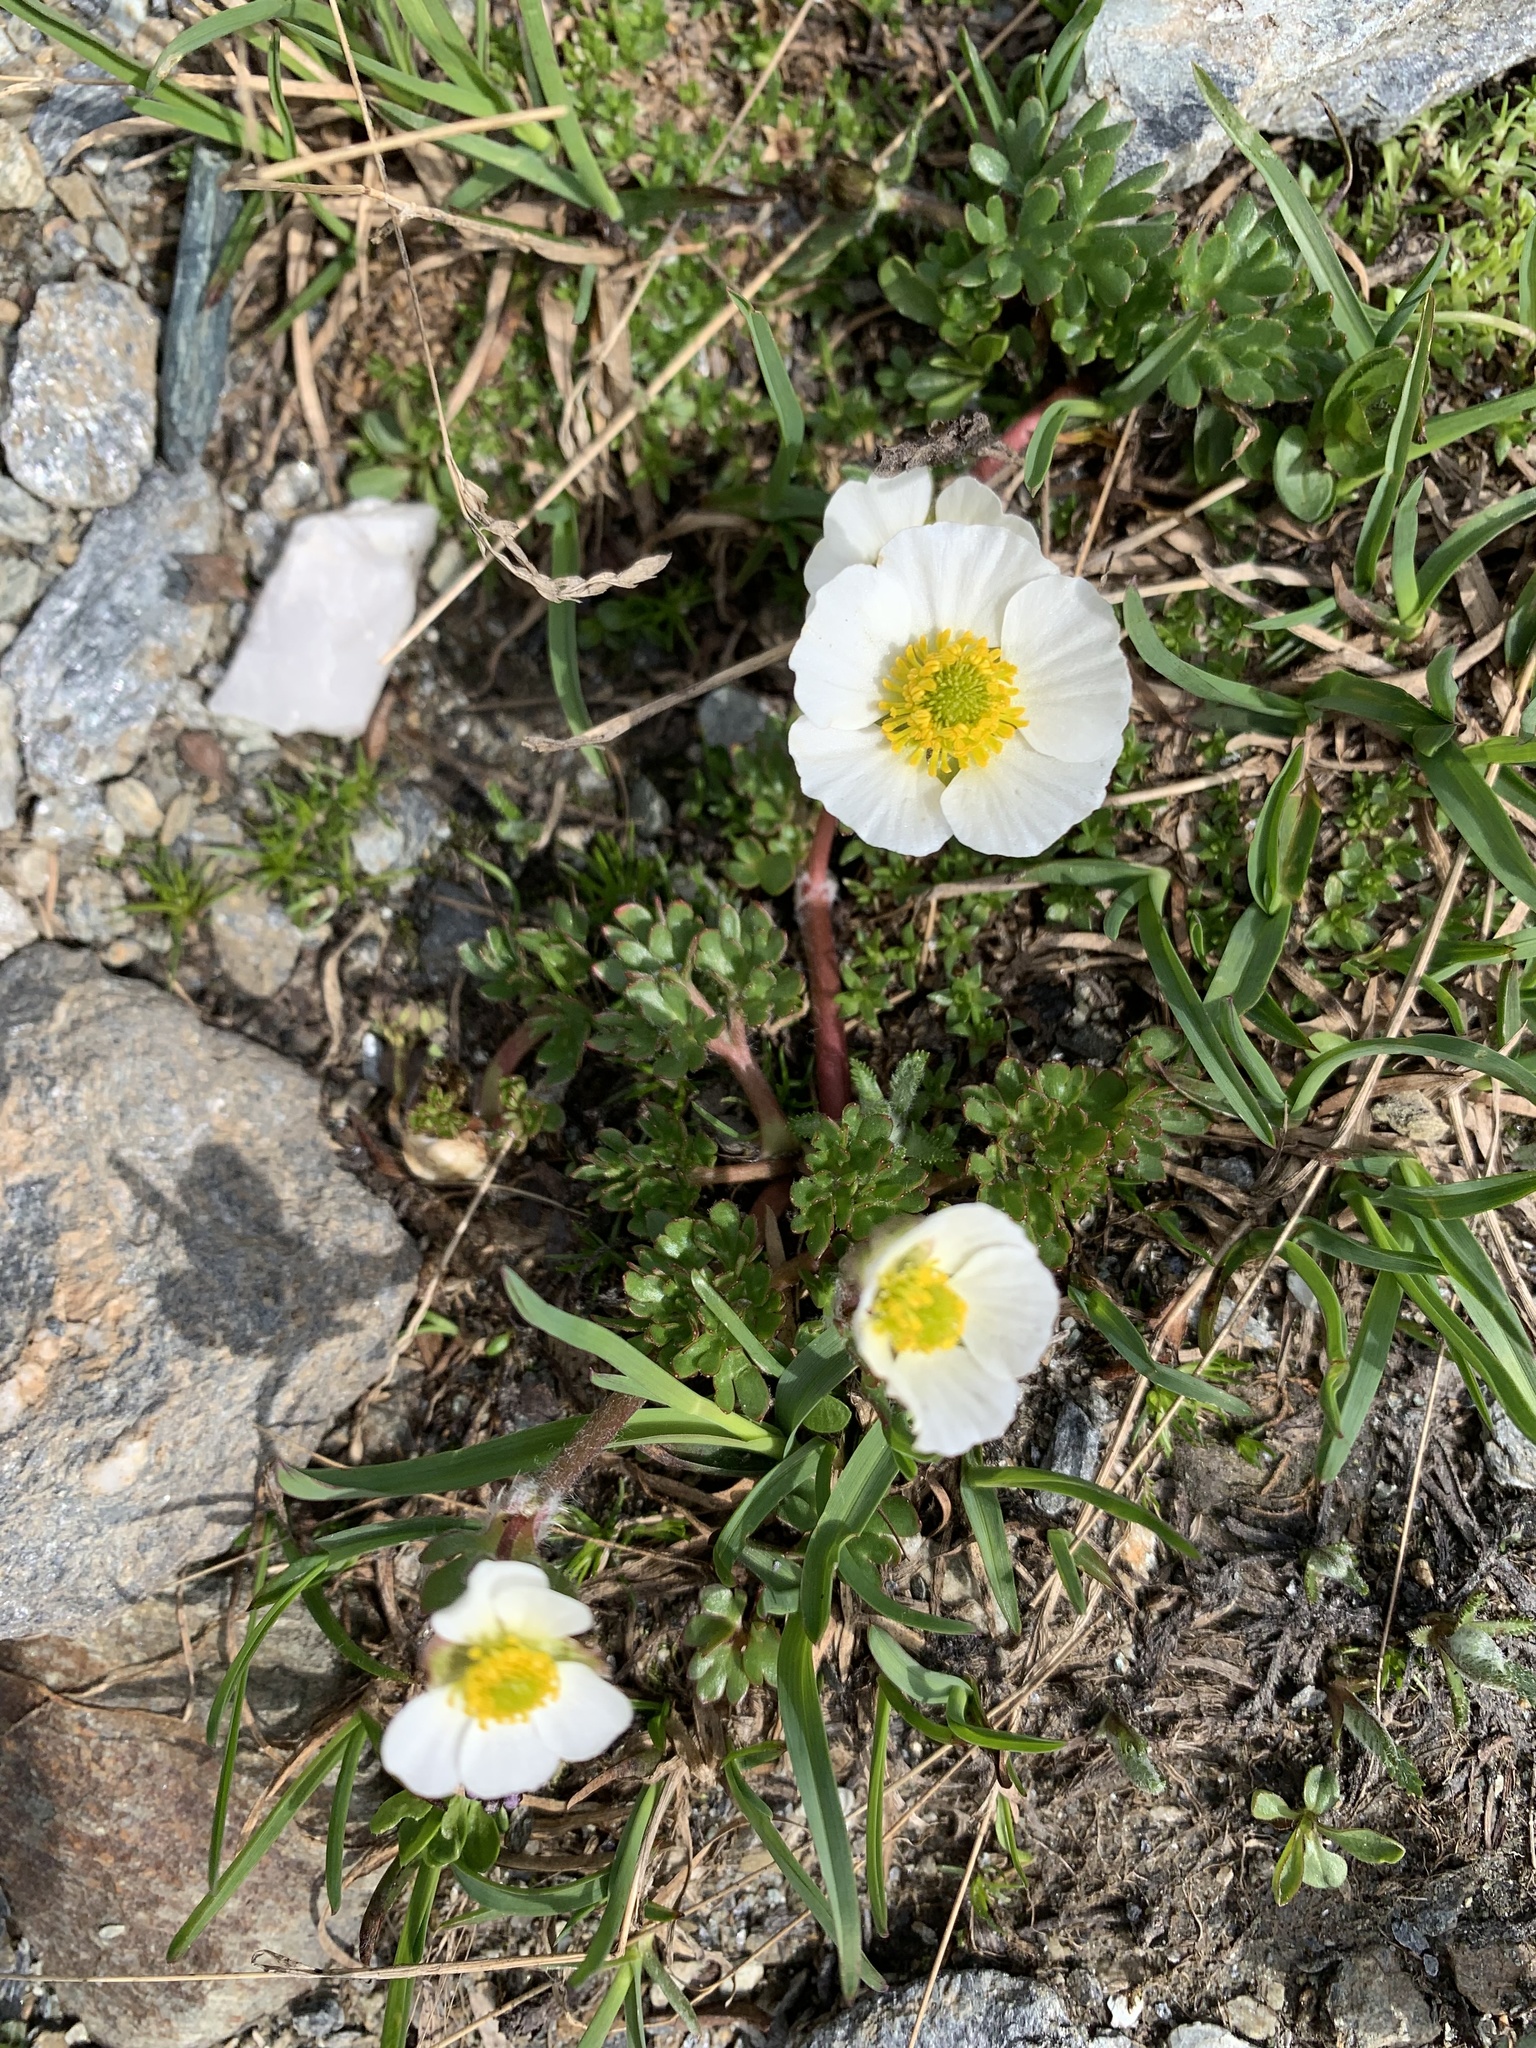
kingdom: Plantae
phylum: Tracheophyta
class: Magnoliopsida
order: Ranunculales
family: Ranunculaceae
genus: Ranunculus
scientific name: Ranunculus glacialis
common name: Glacier buttercup
